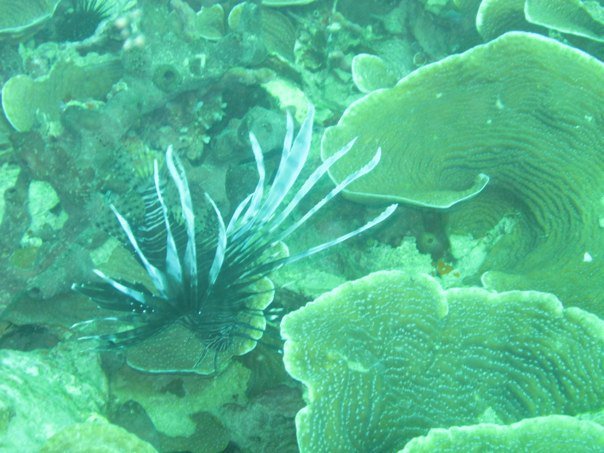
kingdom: Animalia
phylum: Chordata
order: Scorpaeniformes
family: Scorpaenidae
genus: Pterois
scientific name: Pterois volitans
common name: Lionfish
